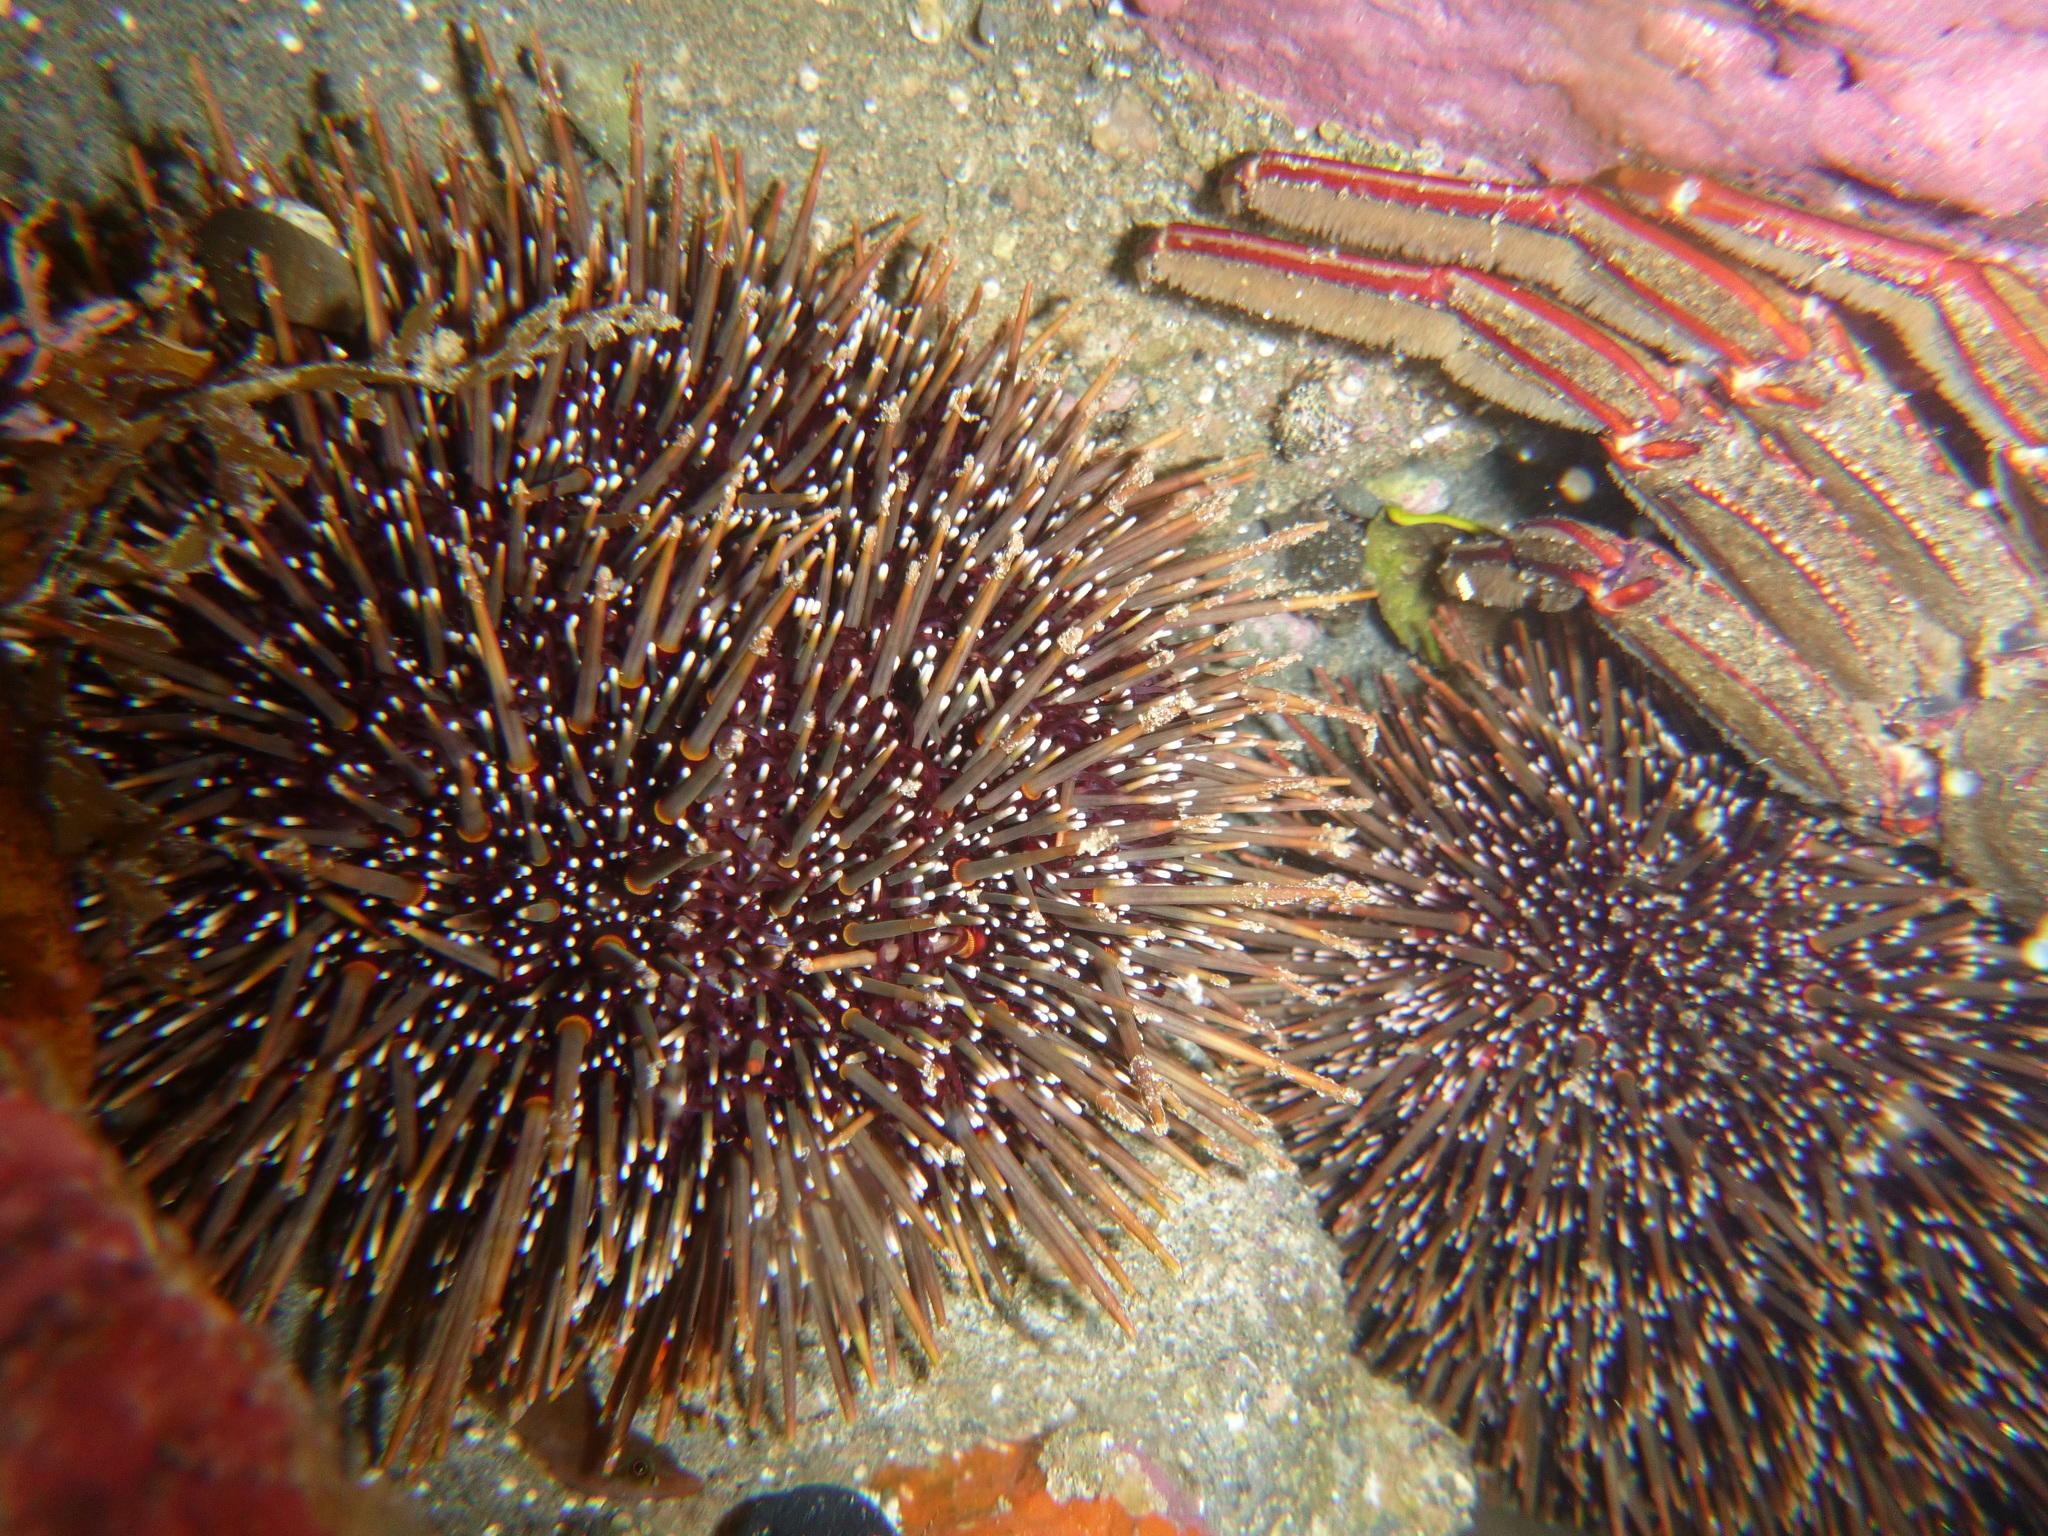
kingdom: Animalia
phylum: Echinodermata
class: Echinoidea
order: Camarodonta
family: Echinometridae
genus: Evechinus
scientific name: Evechinus chloroticus
